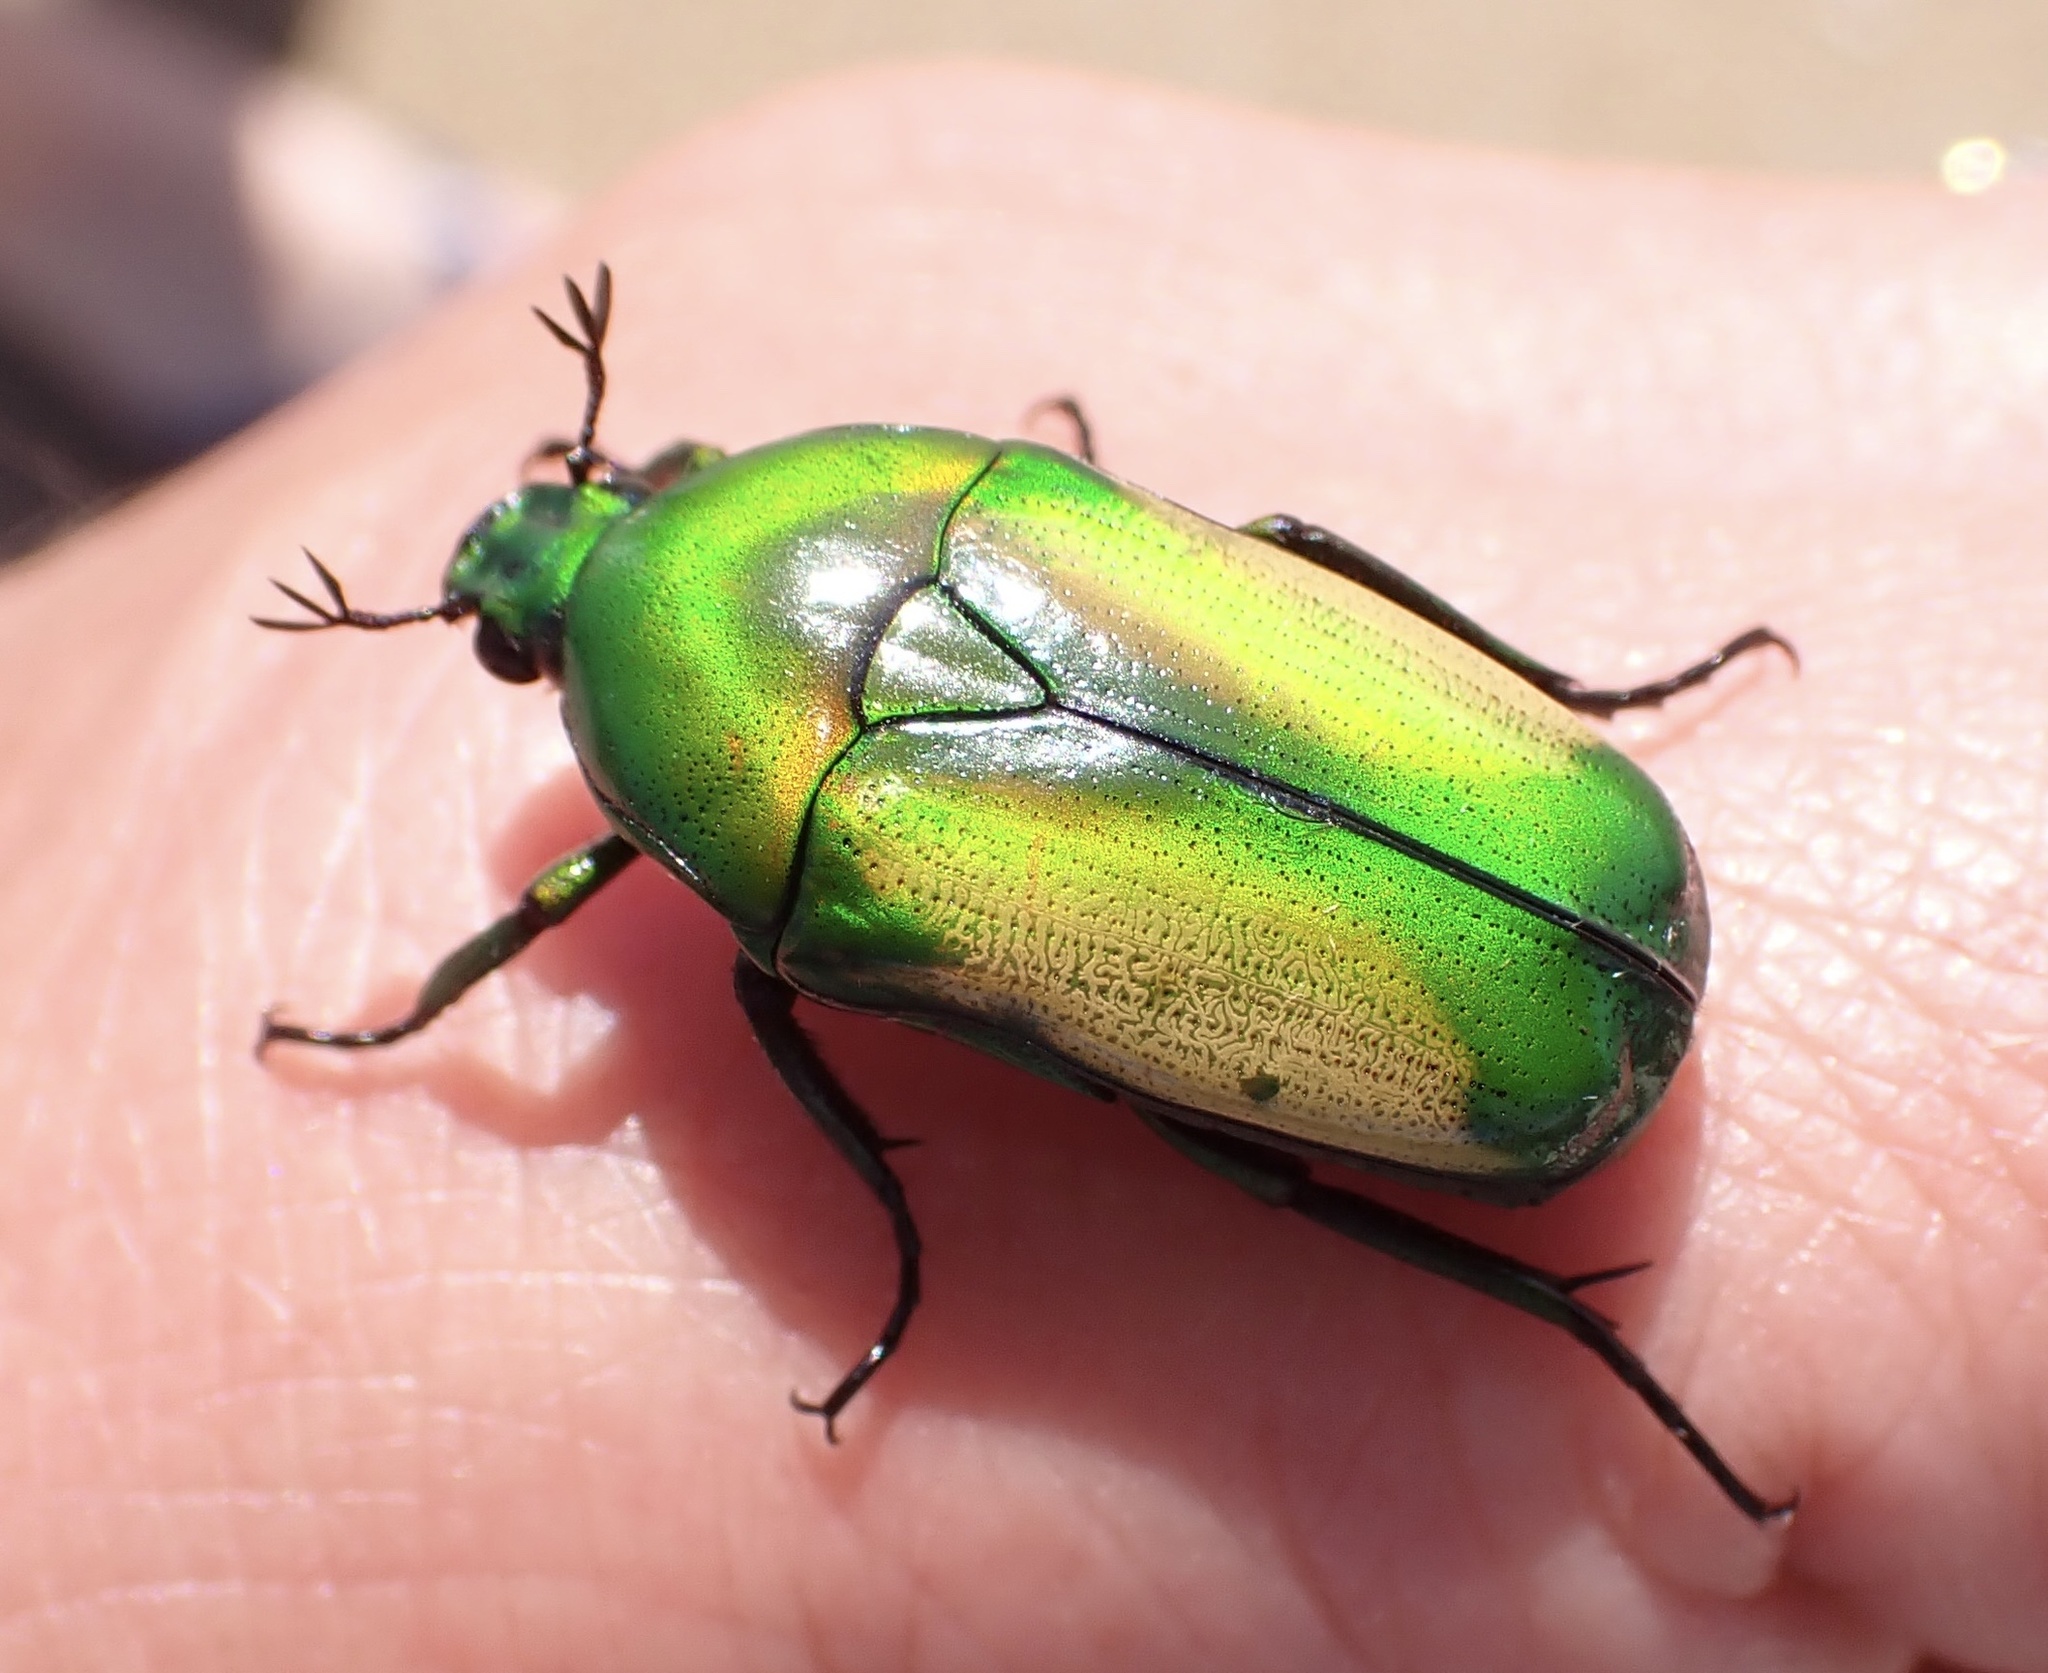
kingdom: Animalia
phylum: Arthropoda
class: Insecta
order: Coleoptera
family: Scarabaeidae
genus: Chlorocala
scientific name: Chlorocala africana
